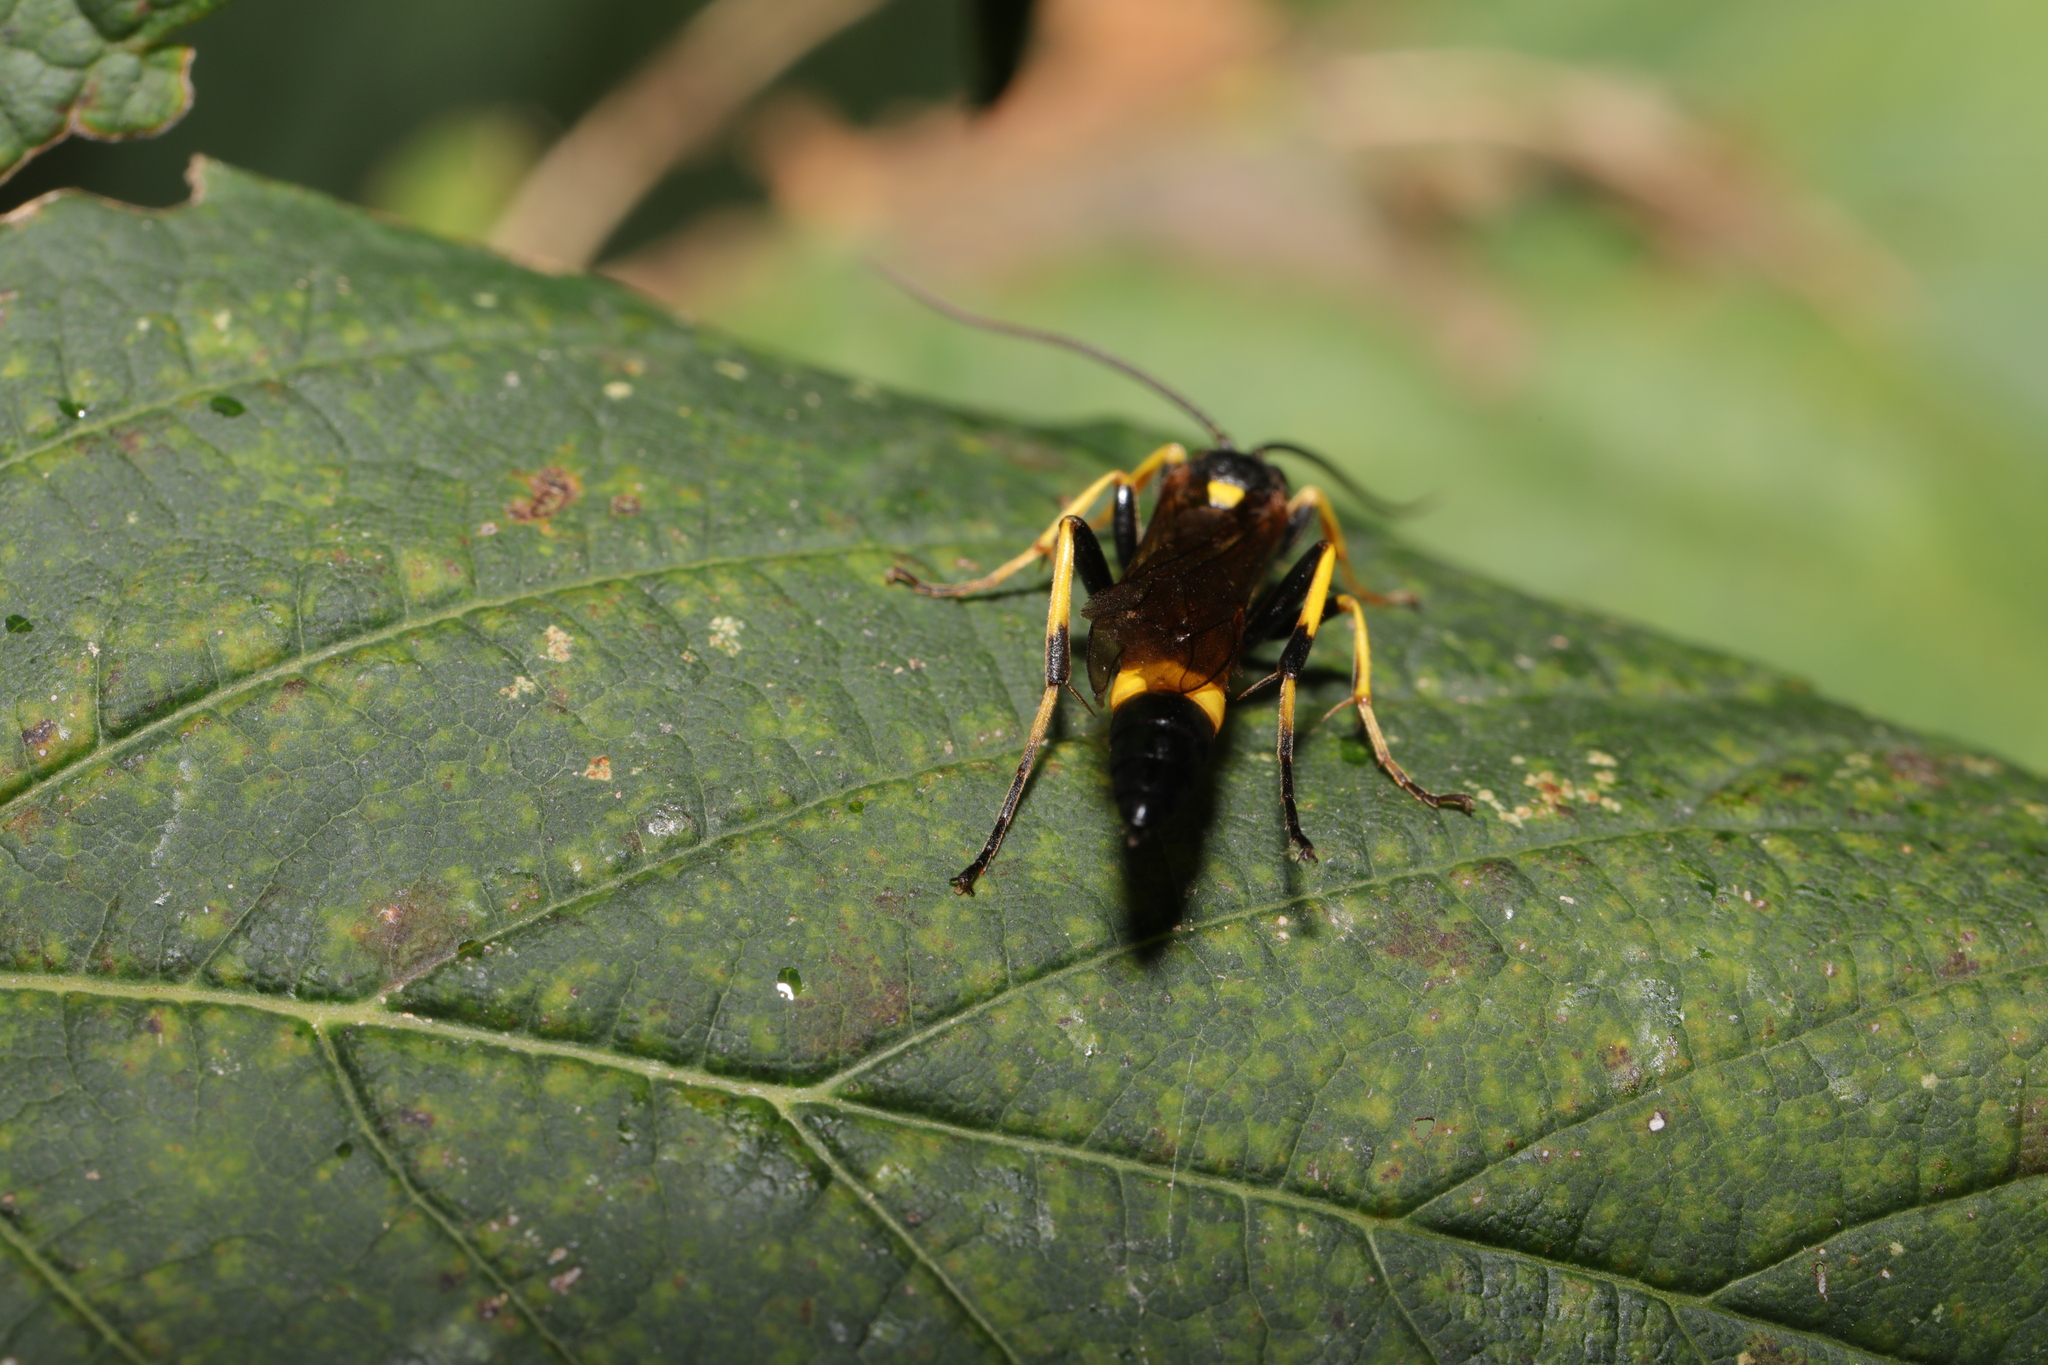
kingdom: Animalia
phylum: Arthropoda
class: Insecta
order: Hymenoptera
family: Ichneumonidae
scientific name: Ichneumonidae
